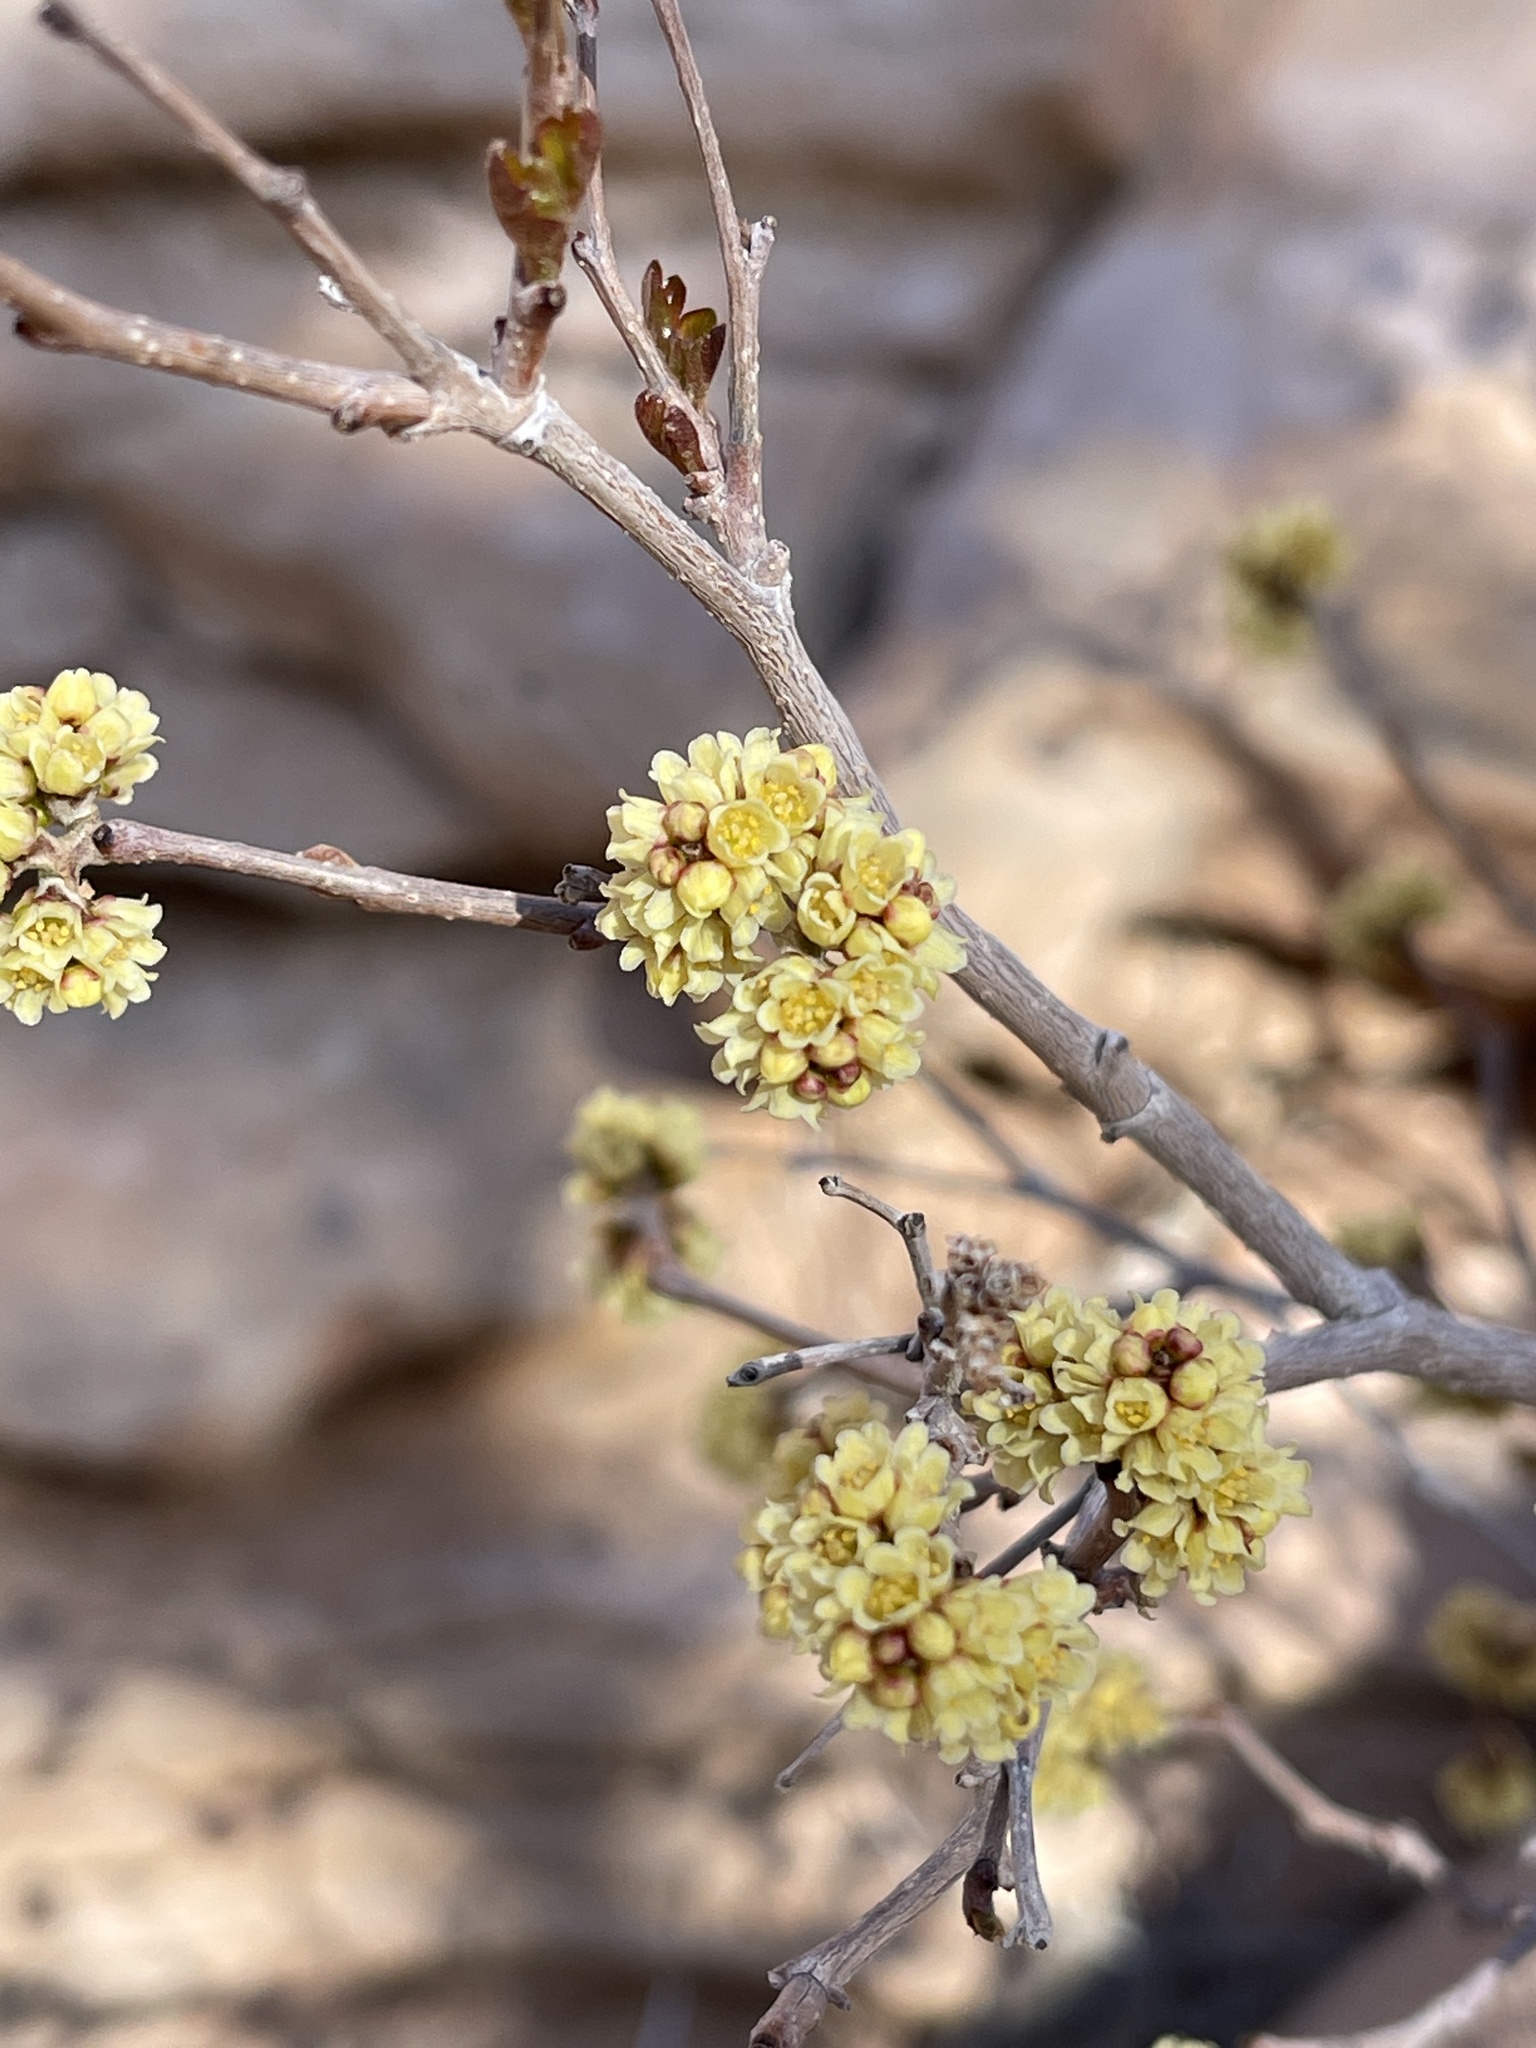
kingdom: Plantae
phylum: Tracheophyta
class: Magnoliopsida
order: Sapindales
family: Anacardiaceae
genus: Rhus
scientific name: Rhus aromatica
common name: Aromatic sumac
